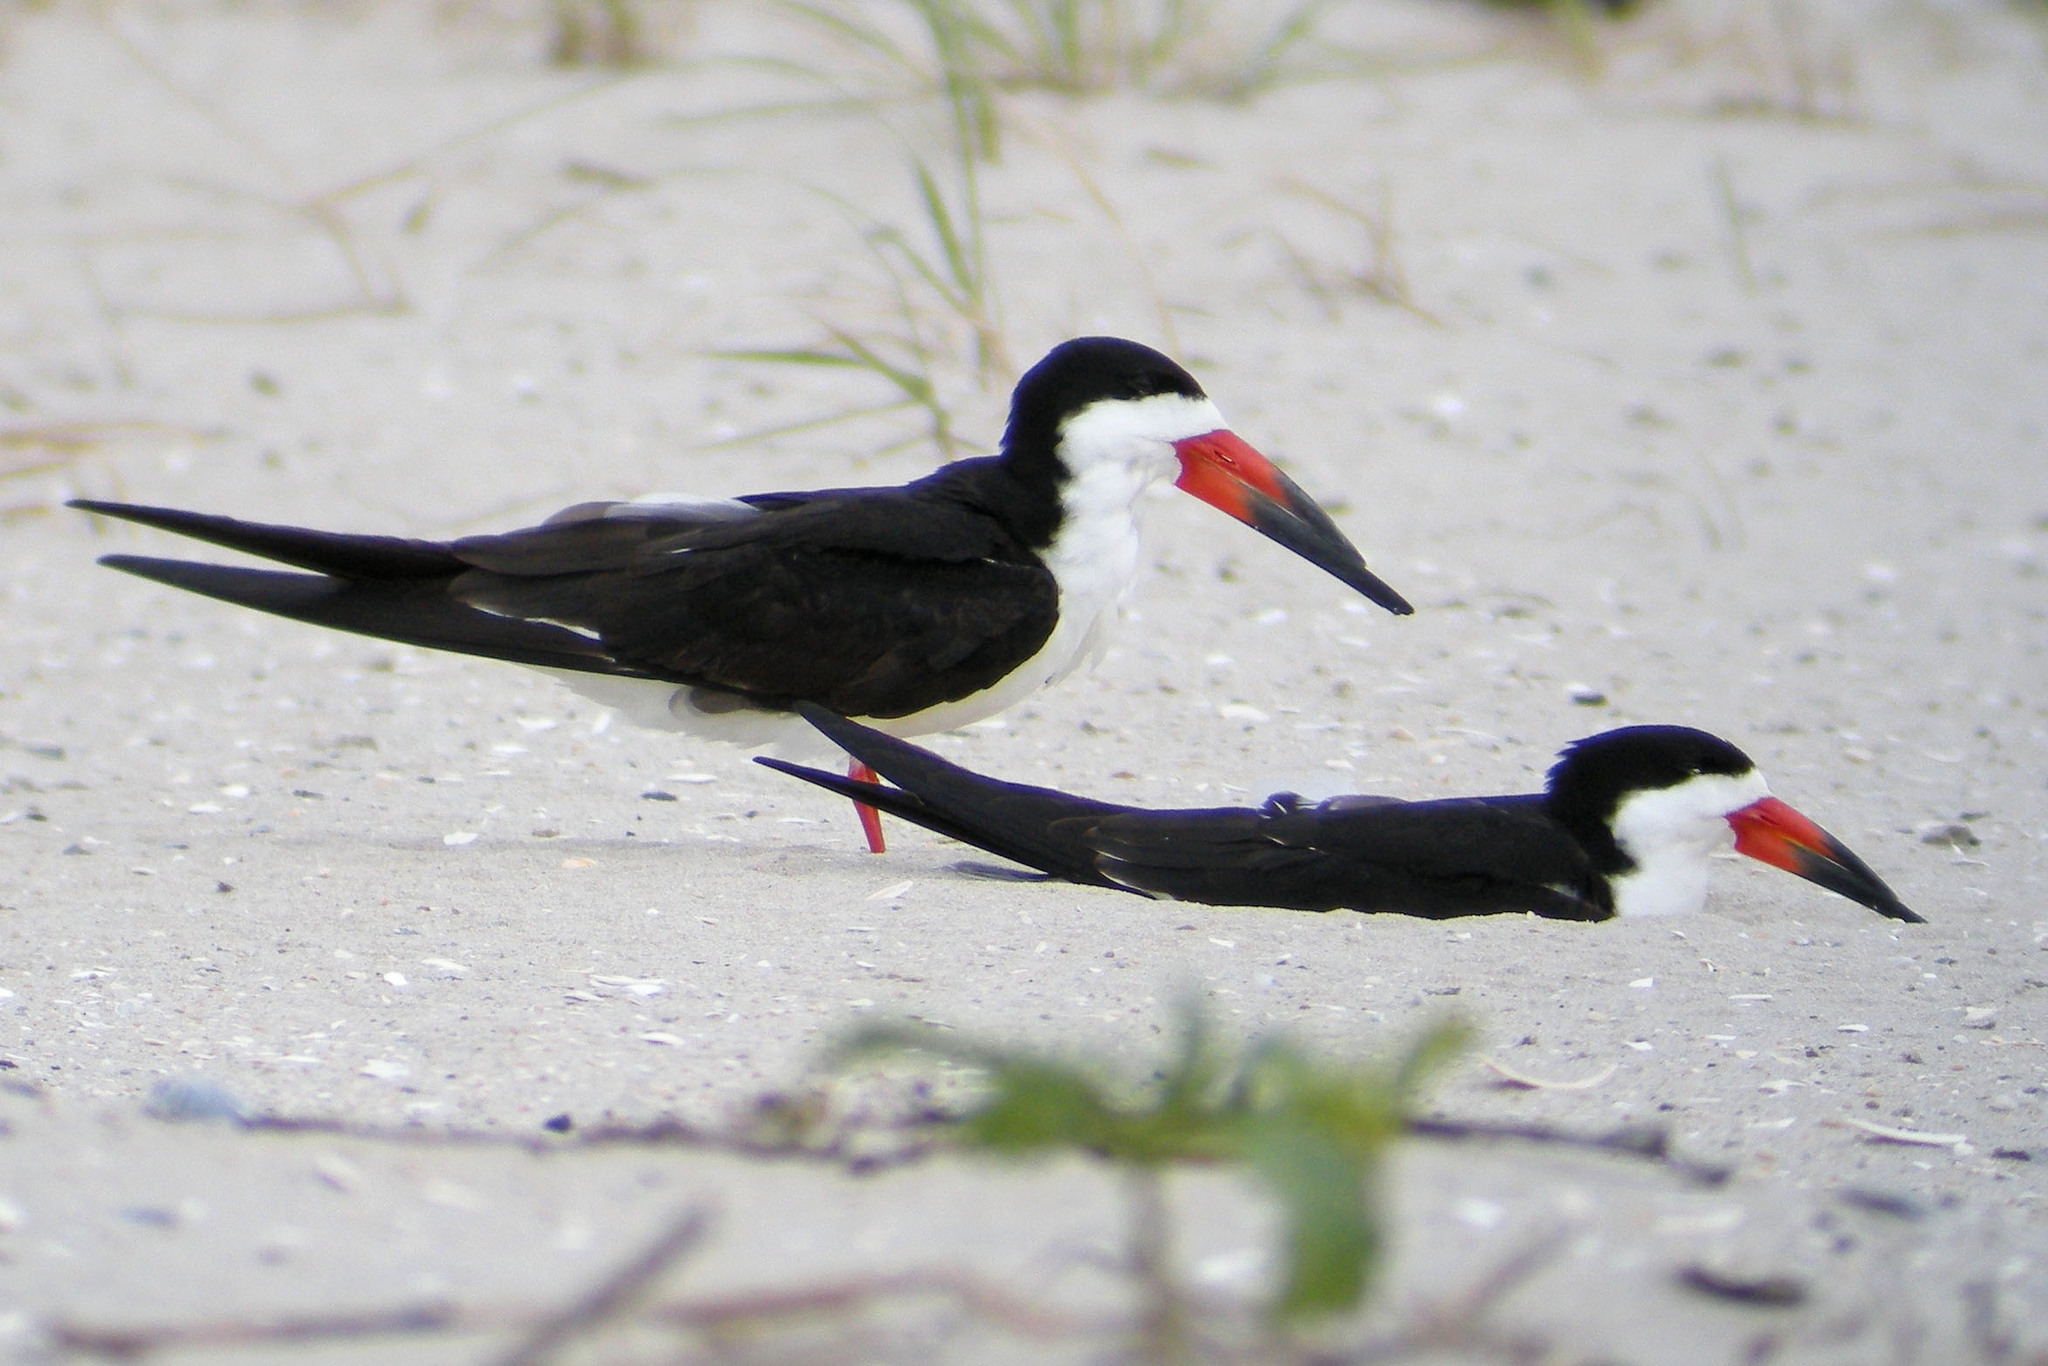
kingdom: Animalia
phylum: Chordata
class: Aves
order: Charadriiformes
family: Laridae
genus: Rynchops
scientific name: Rynchops niger
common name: Black skimmer
